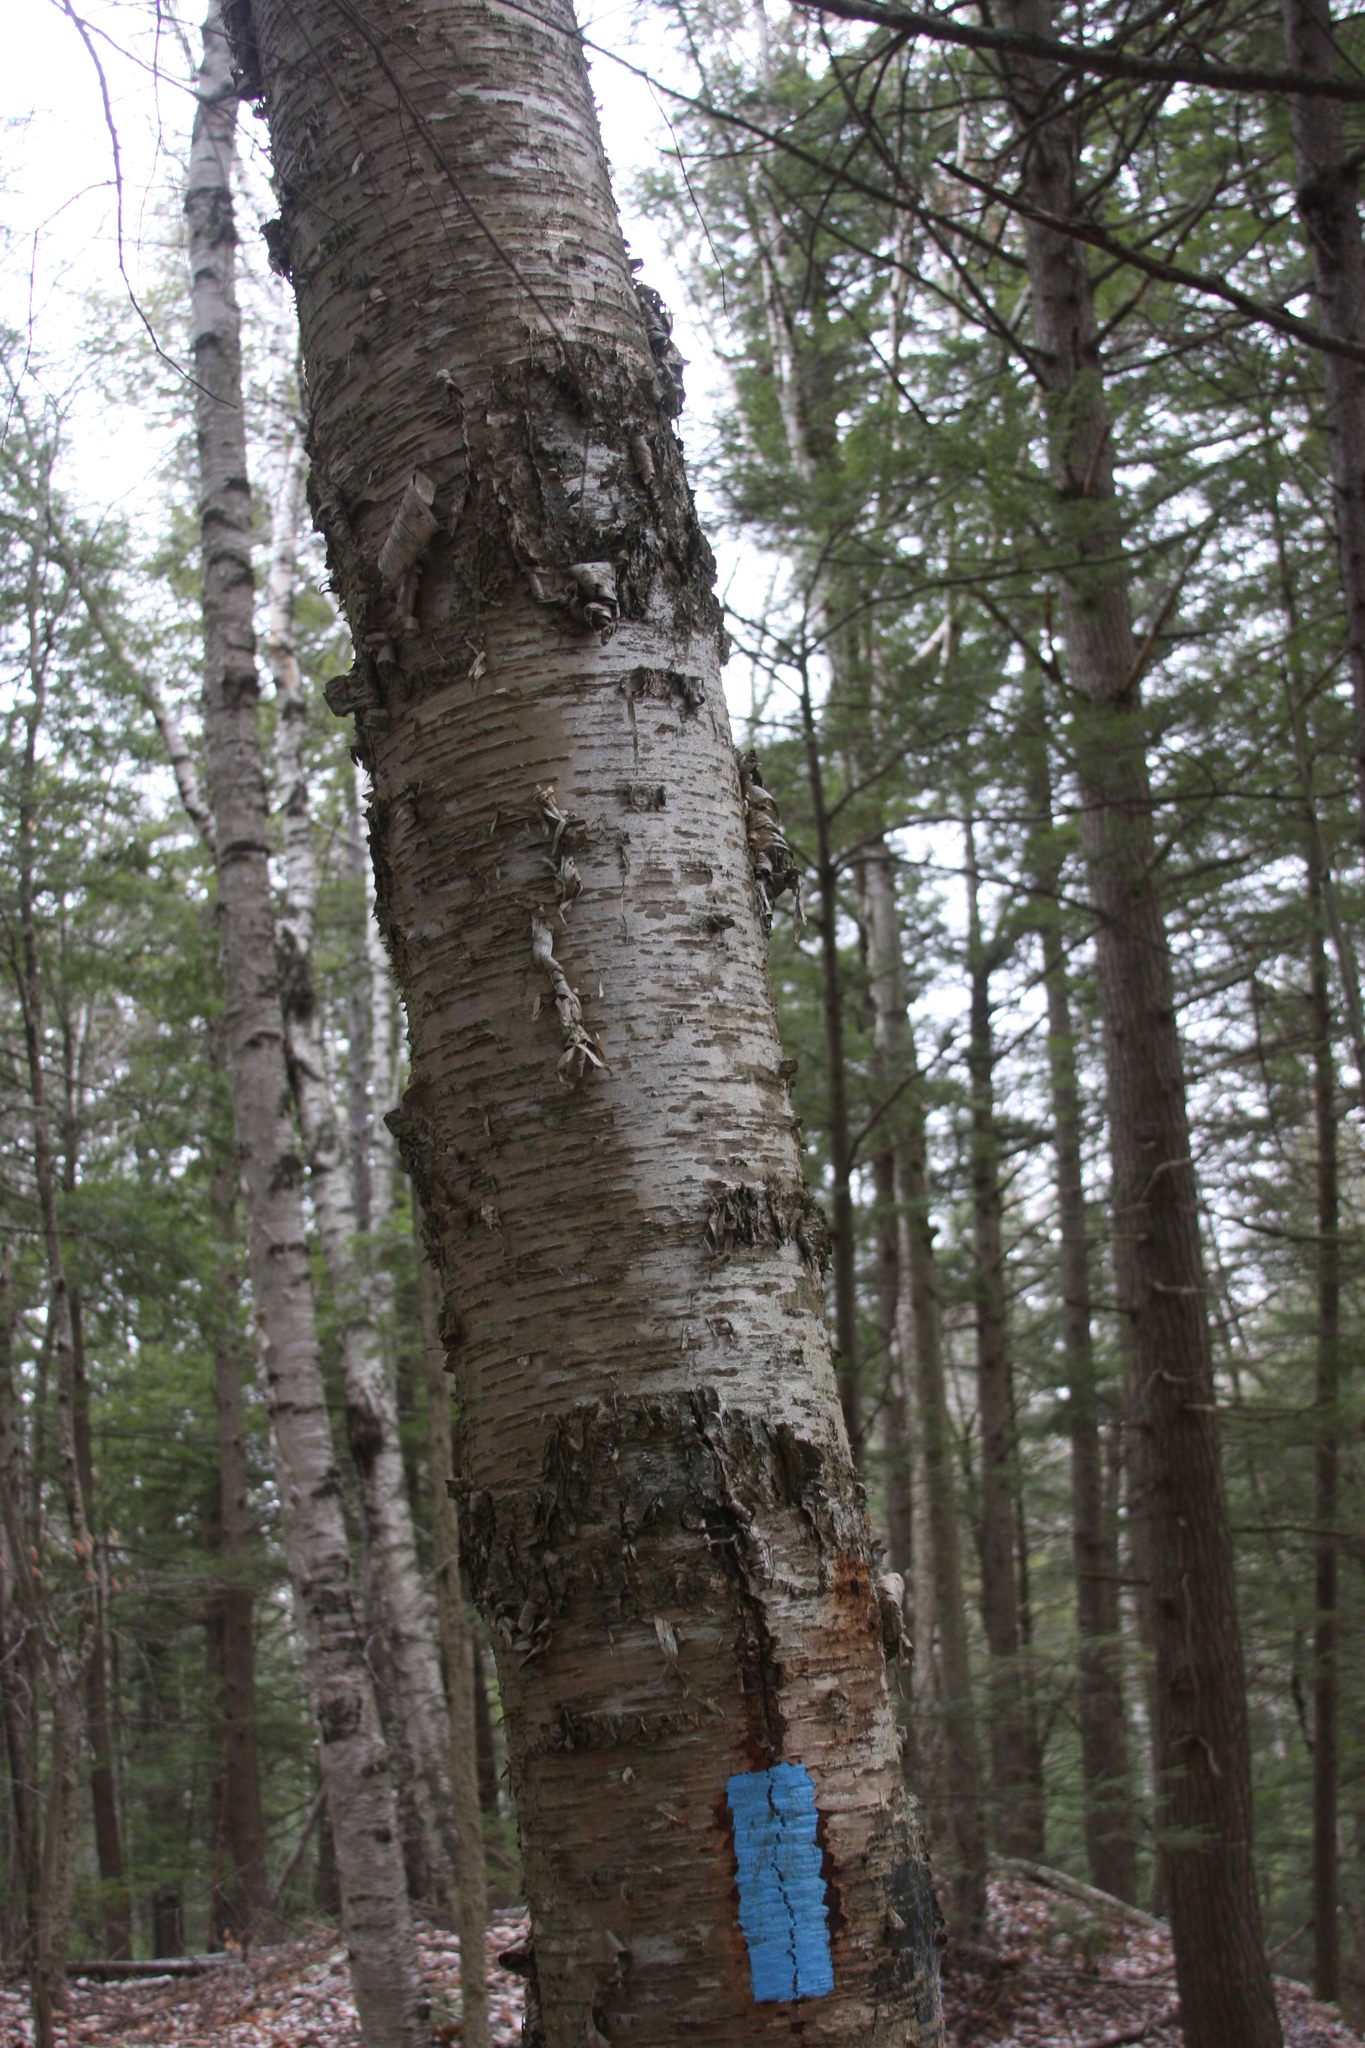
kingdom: Plantae
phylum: Tracheophyta
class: Magnoliopsida
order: Fagales
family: Betulaceae
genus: Betula
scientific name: Betula alleghaniensis
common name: Yellow birch
